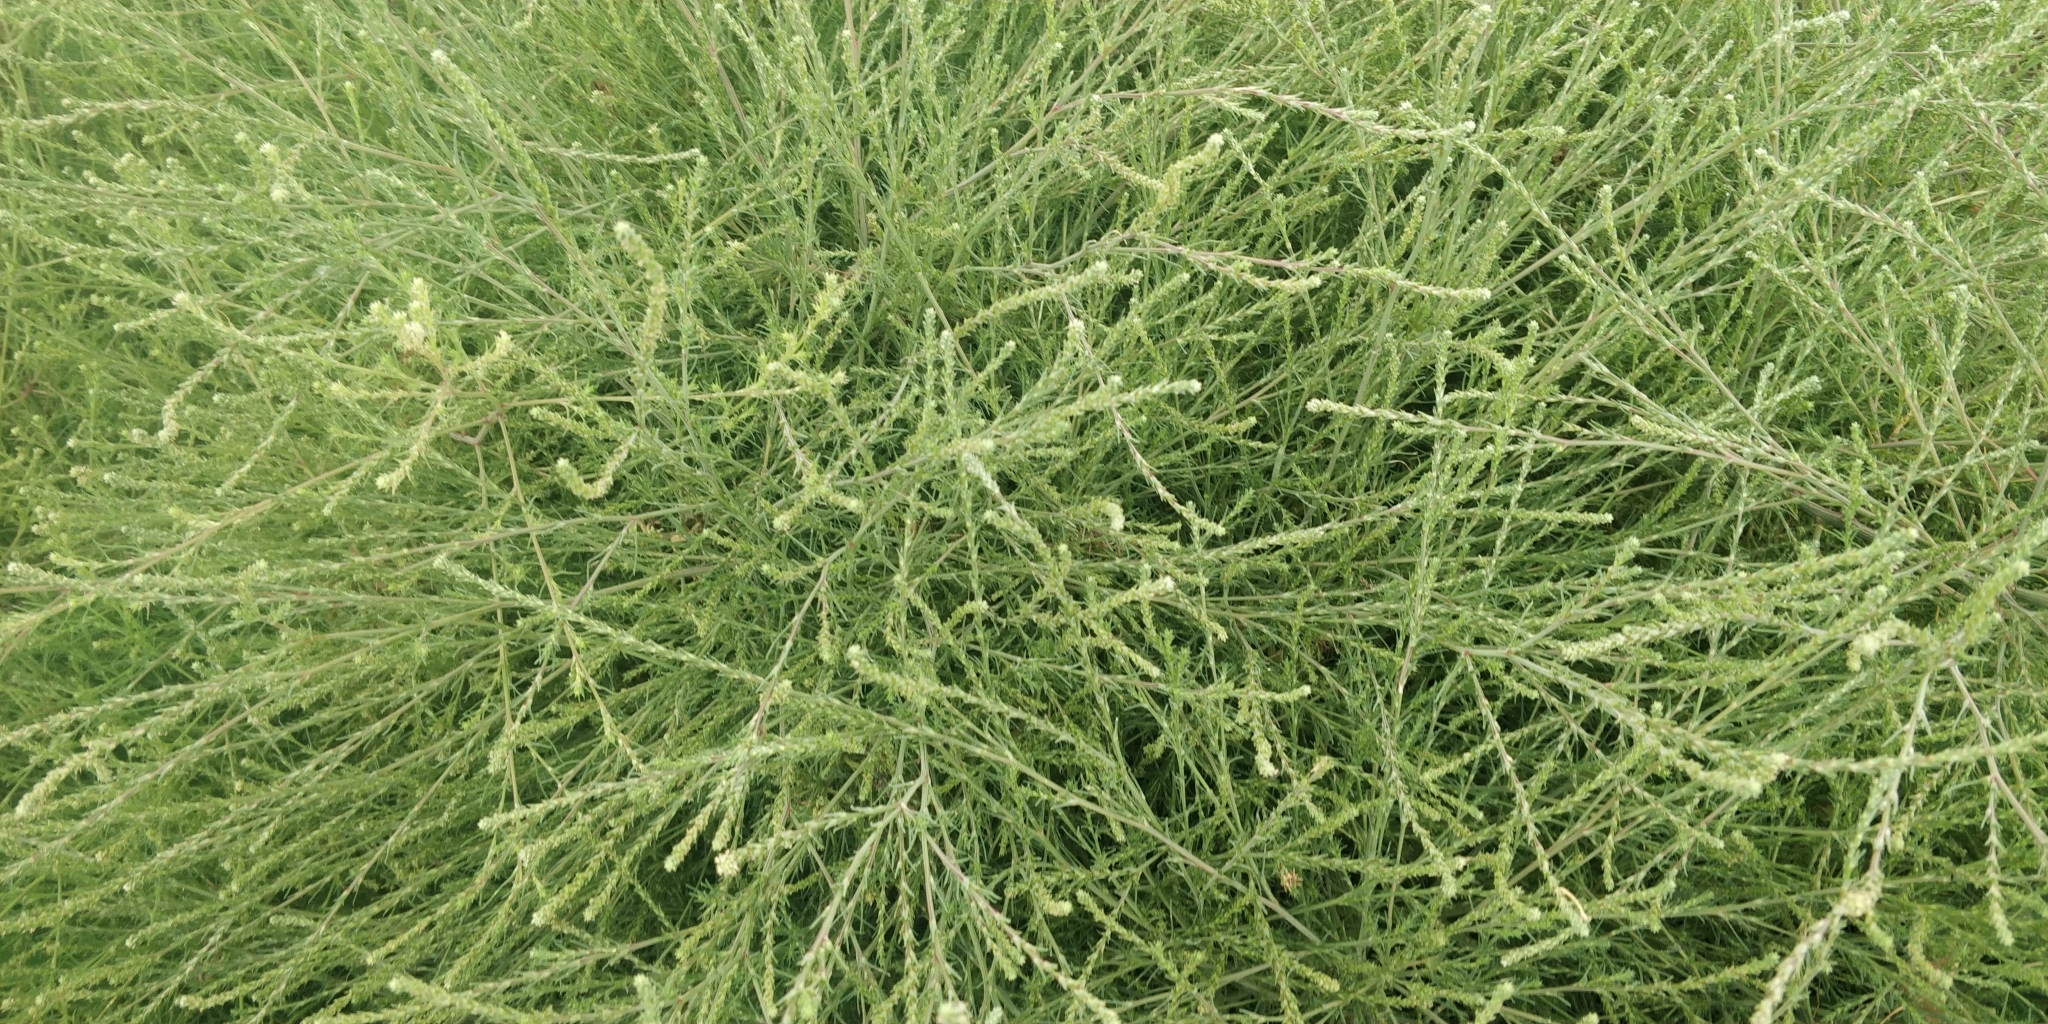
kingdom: Plantae
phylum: Tracheophyta
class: Magnoliopsida
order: Caryophyllales
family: Amaranthaceae
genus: Salsola
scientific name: Salsola tragus
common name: Prickly russian thistle
